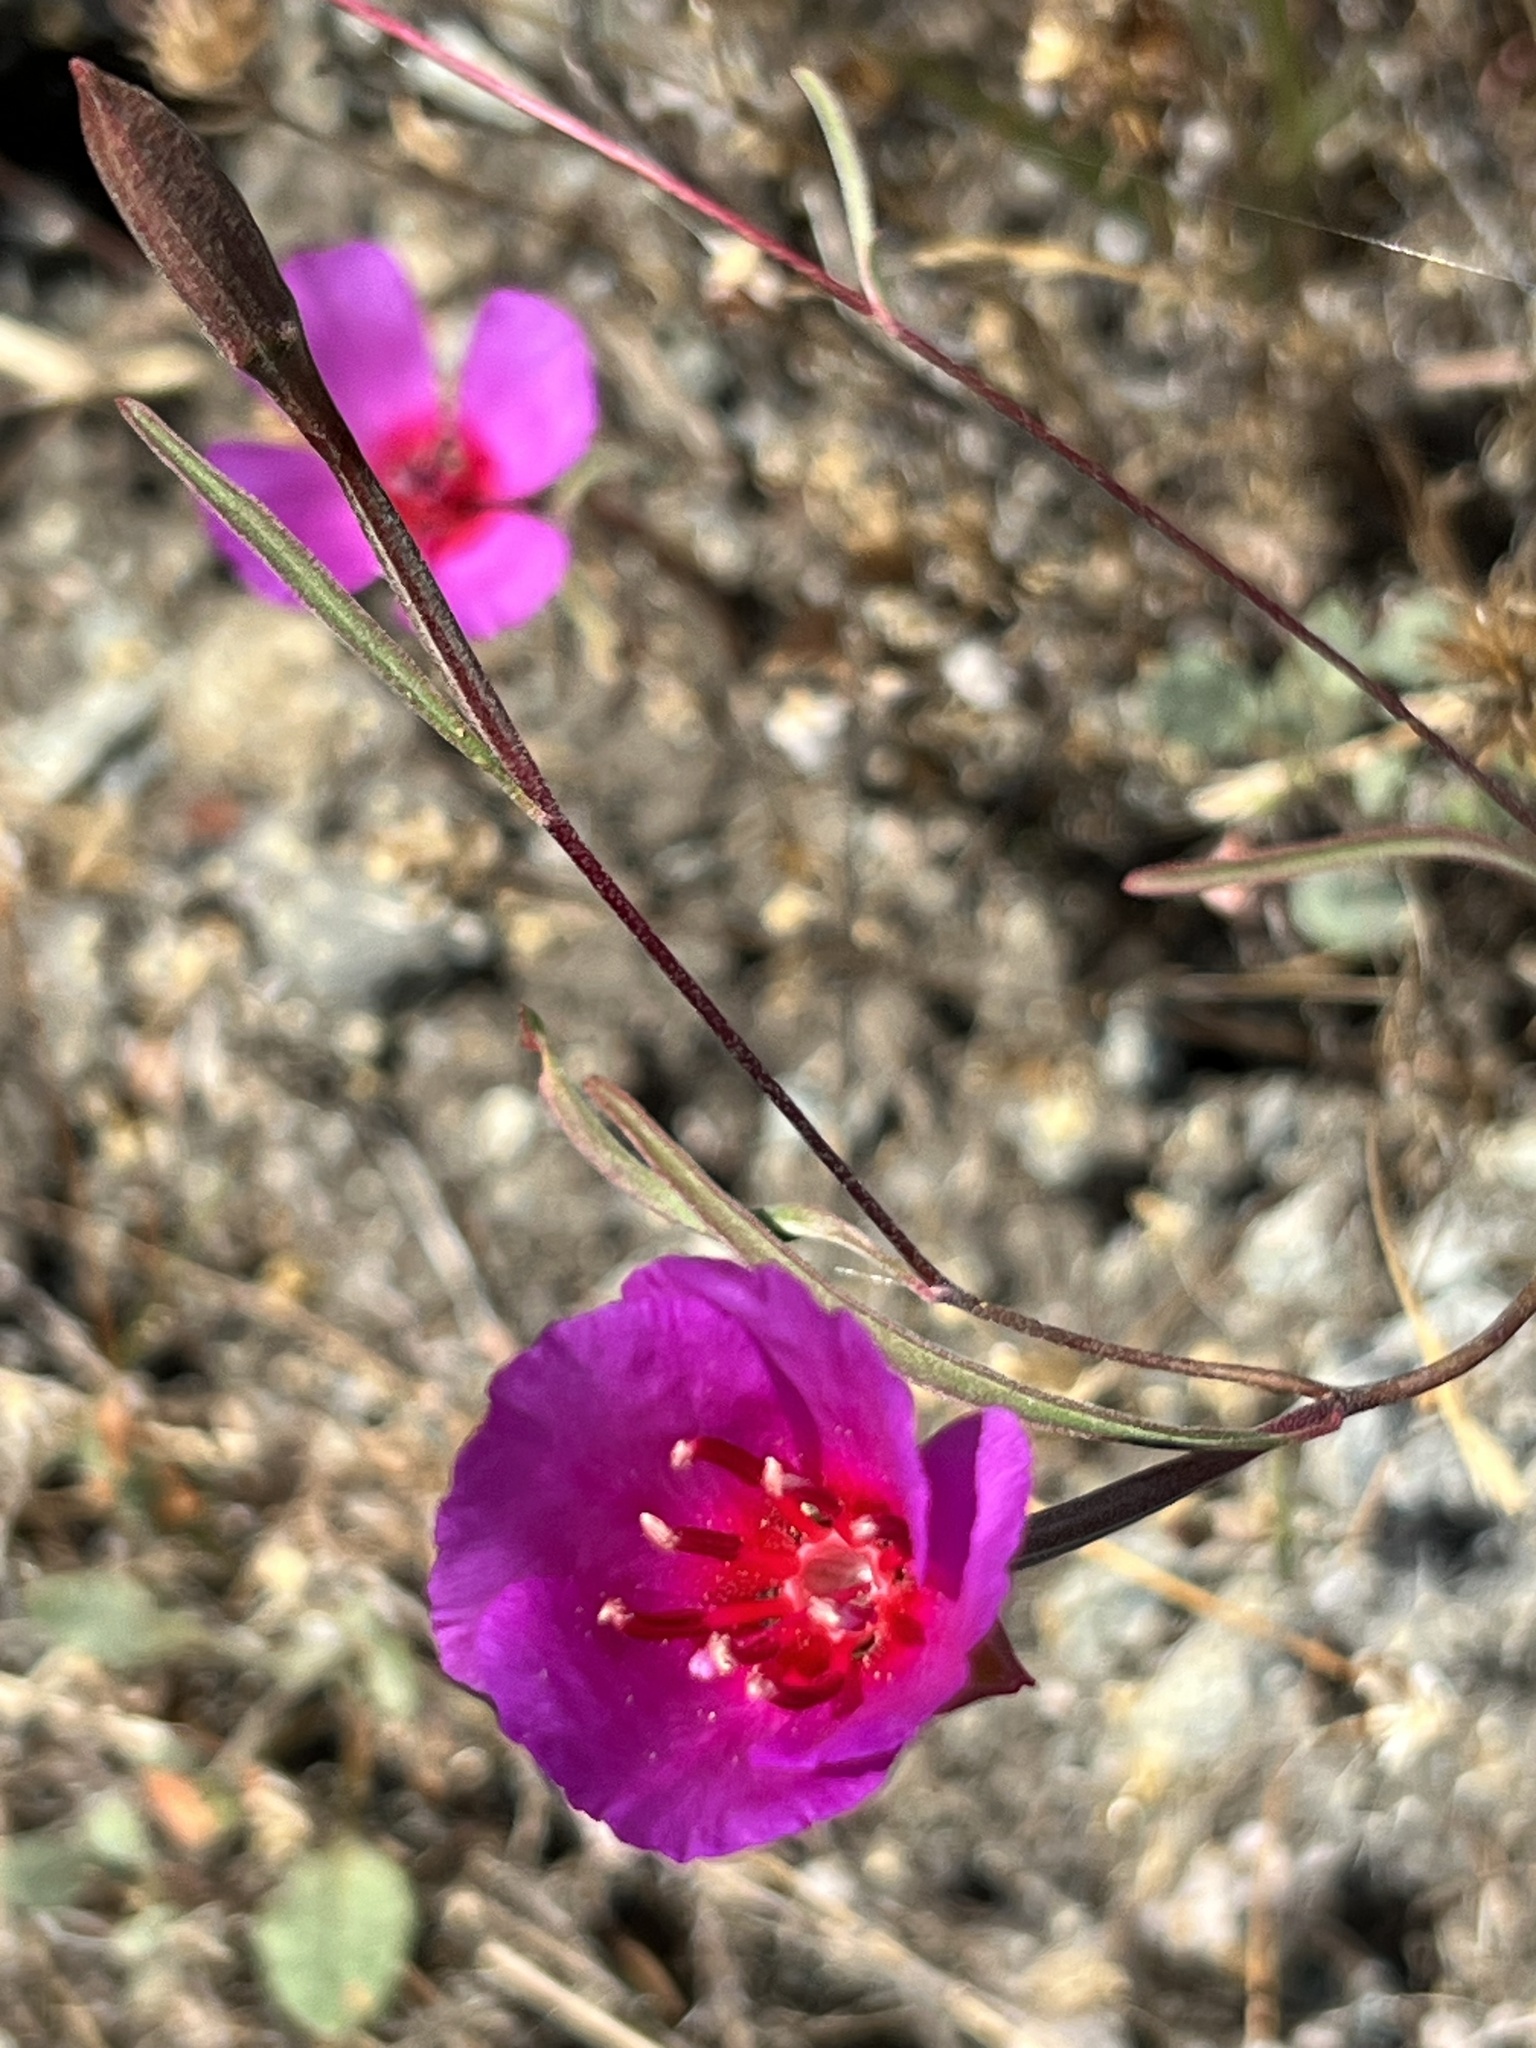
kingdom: Plantae
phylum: Tracheophyta
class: Magnoliopsida
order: Myrtales
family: Onagraceae
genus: Clarkia
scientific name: Clarkia rubicunda
